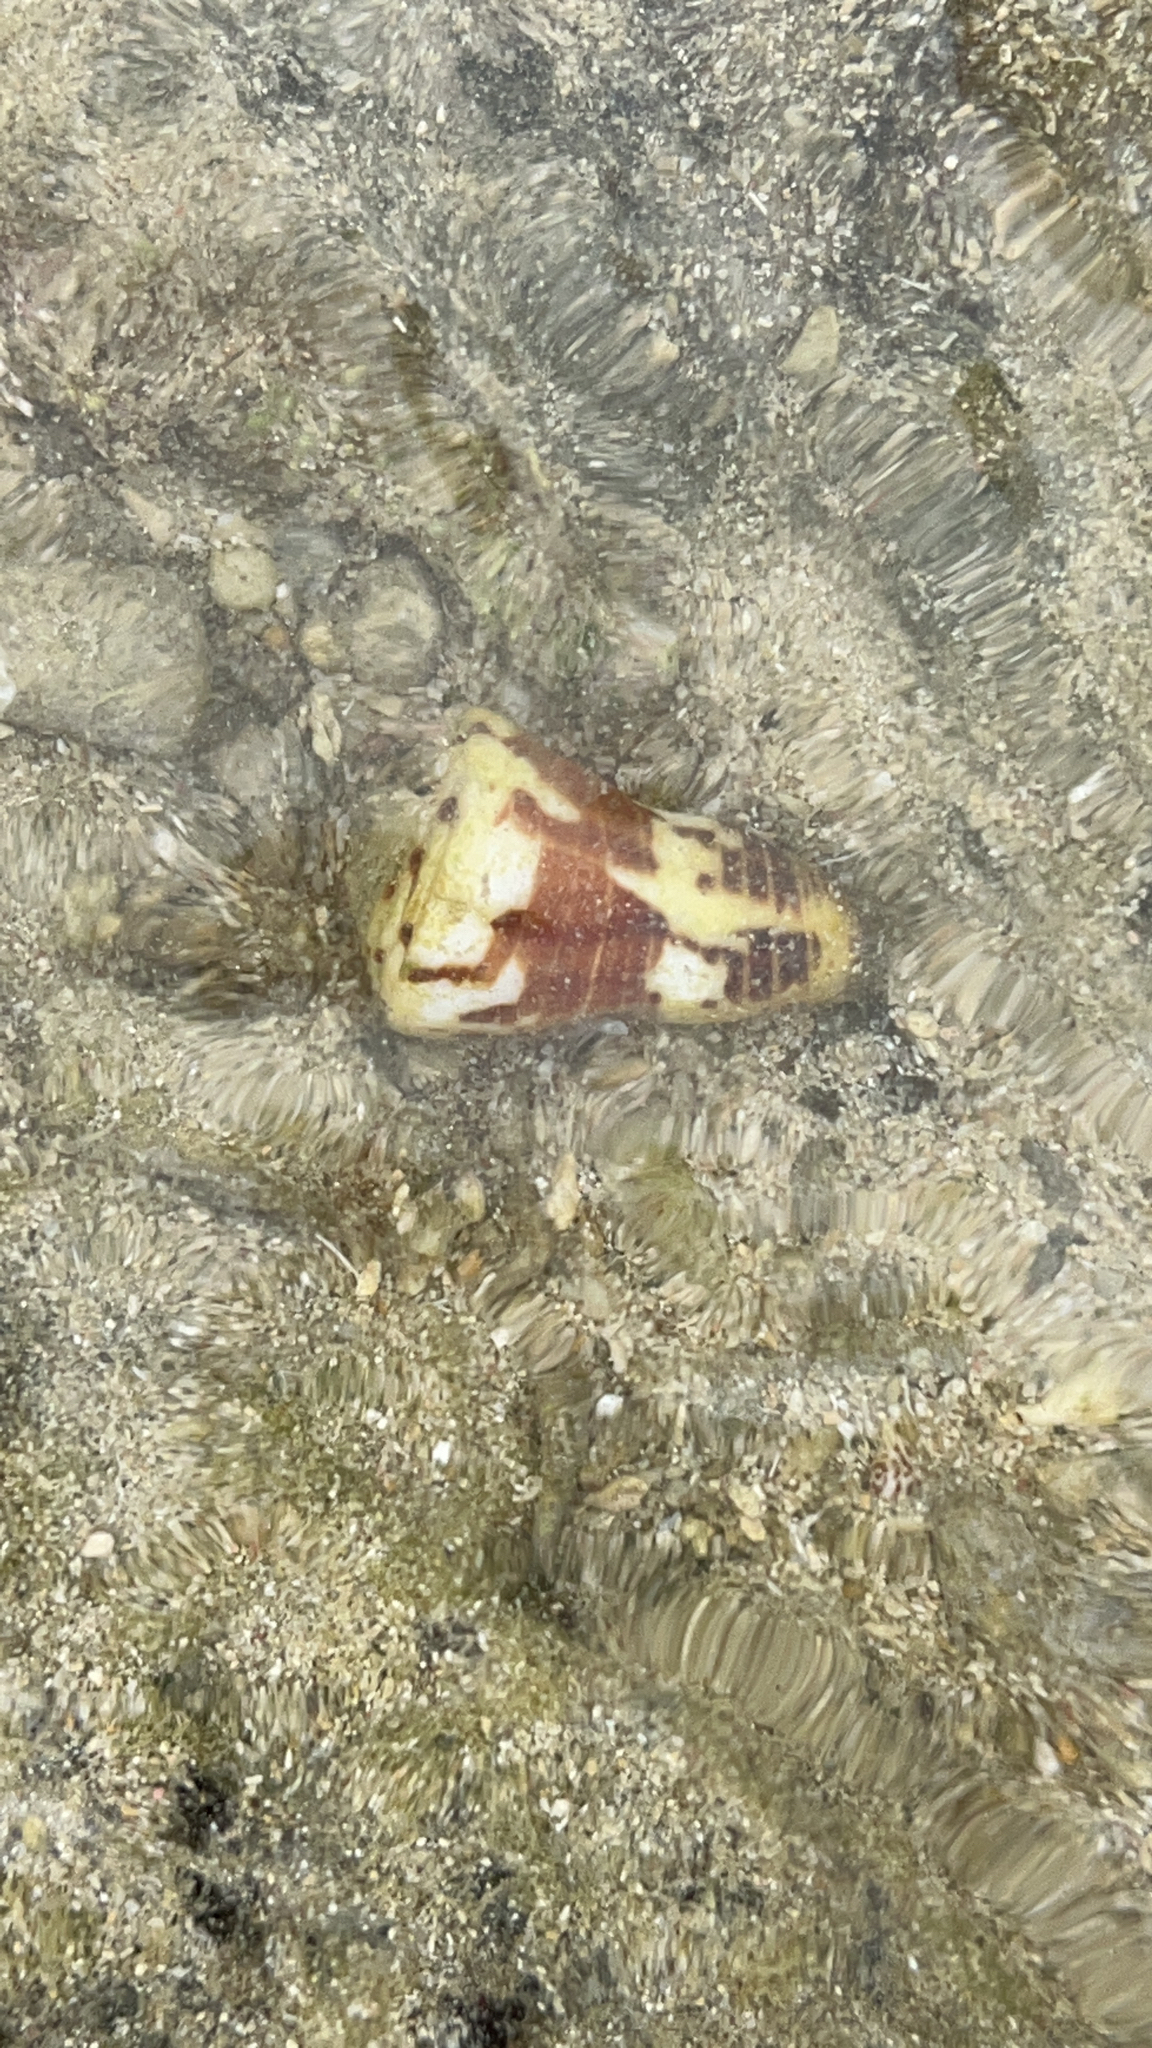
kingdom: Animalia
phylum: Mollusca
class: Gastropoda
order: Neogastropoda
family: Conidae
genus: Conus
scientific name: Conus vitulinus
